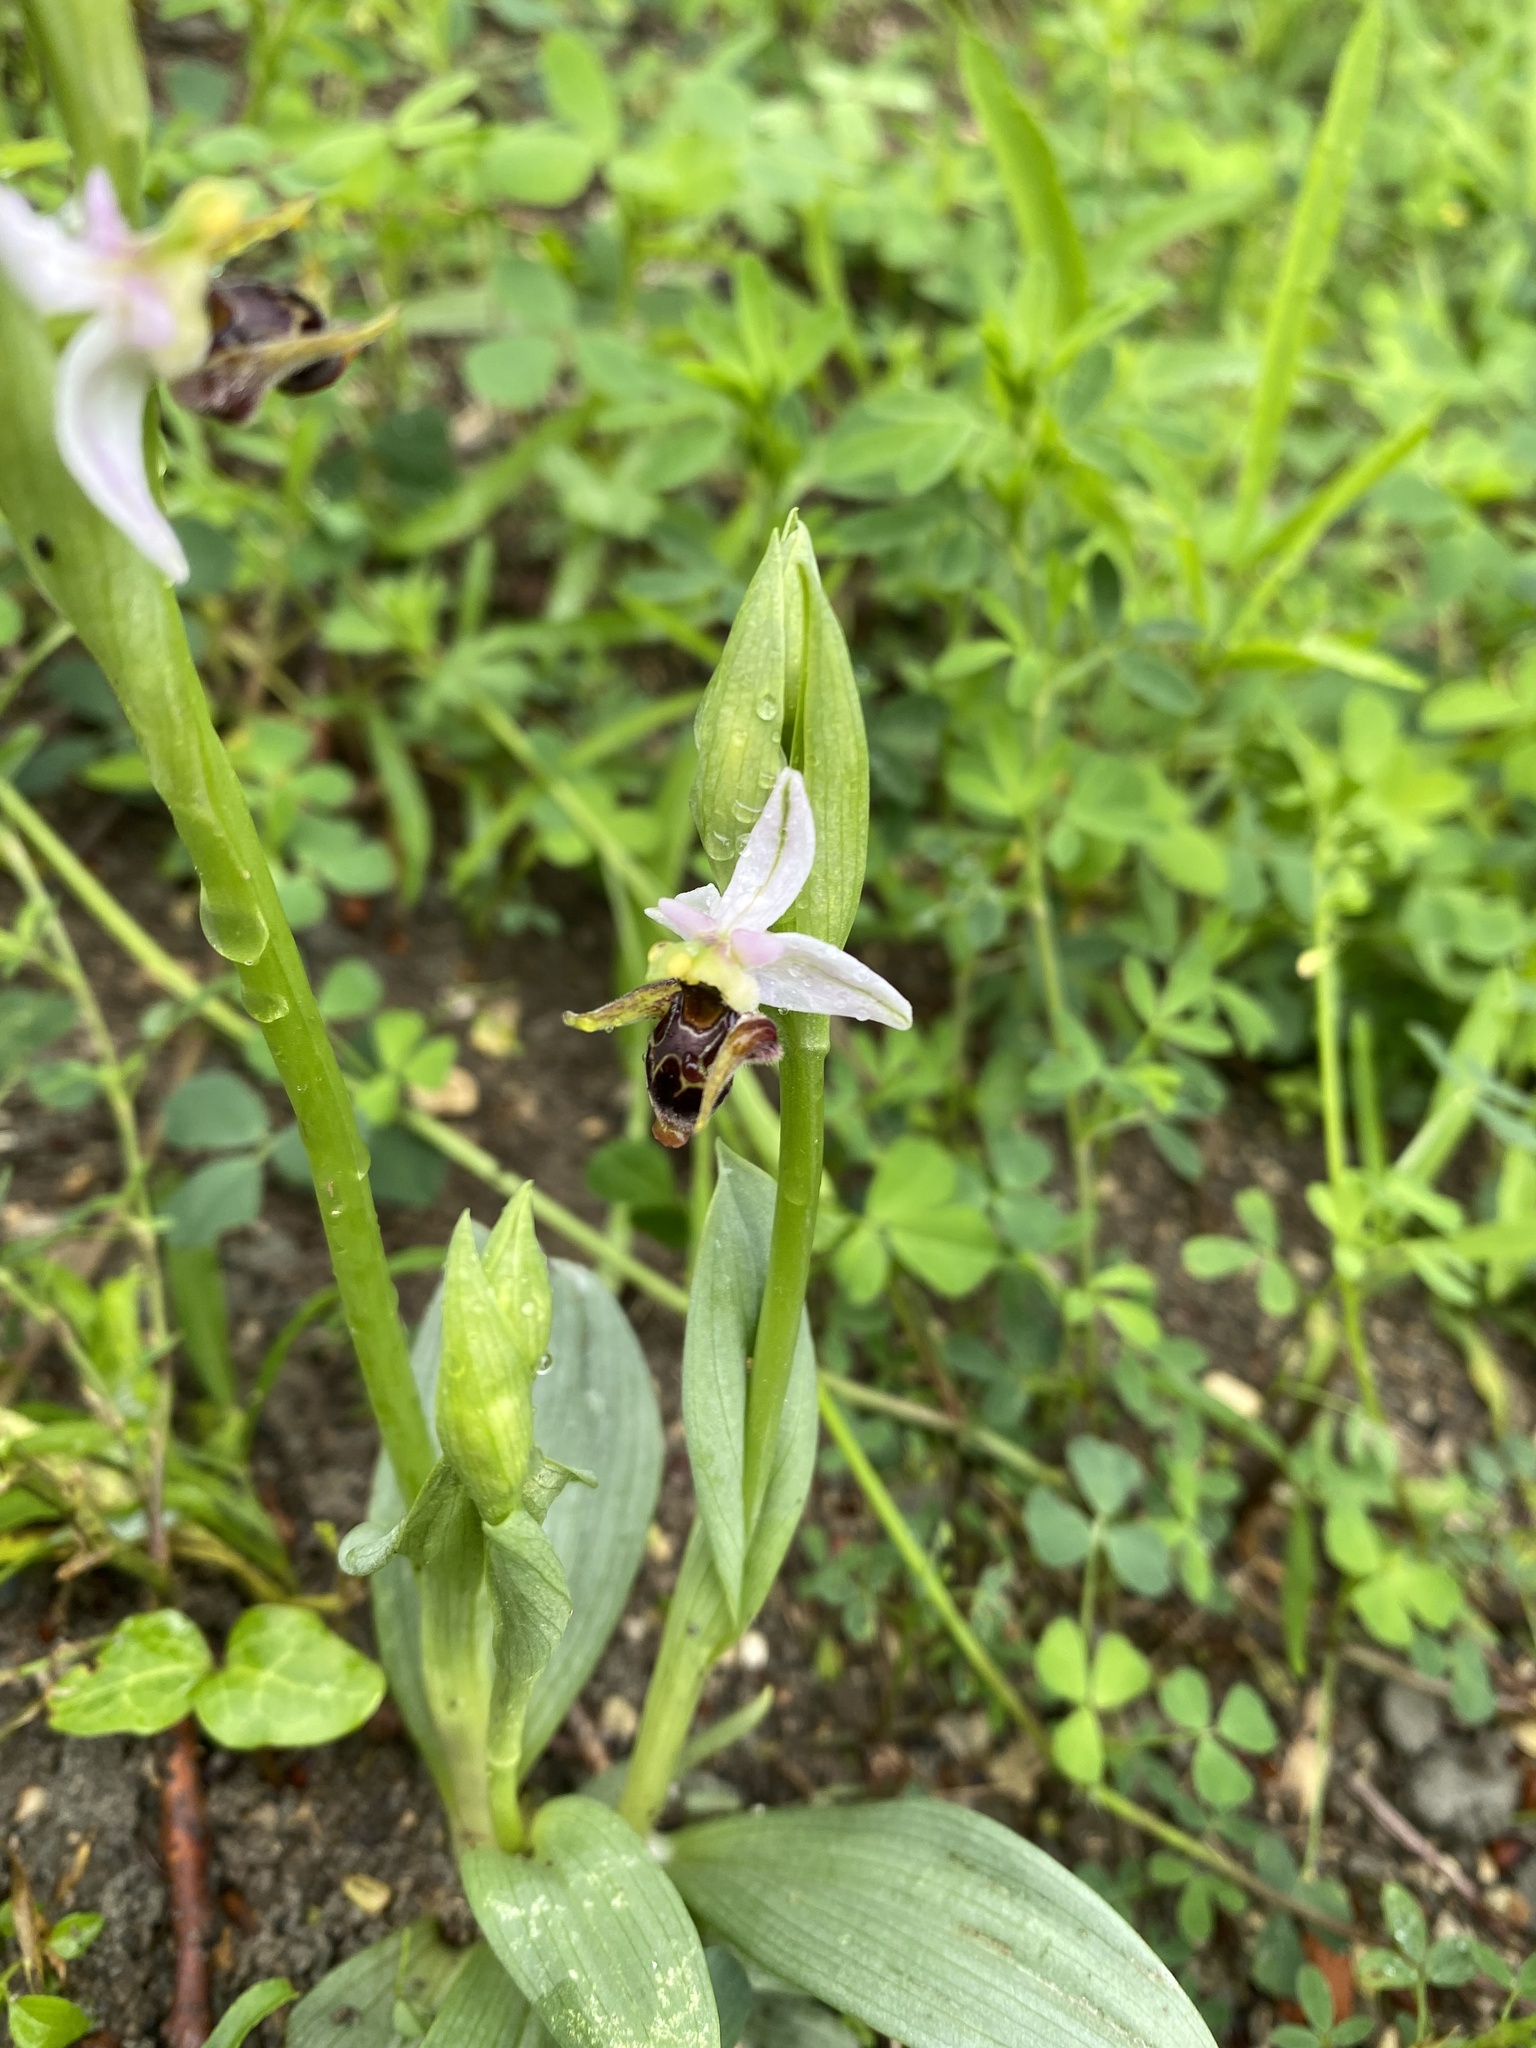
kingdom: Plantae
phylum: Tracheophyta
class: Liliopsida
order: Asparagales
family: Orchidaceae
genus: Ophrys
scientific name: Ophrys
